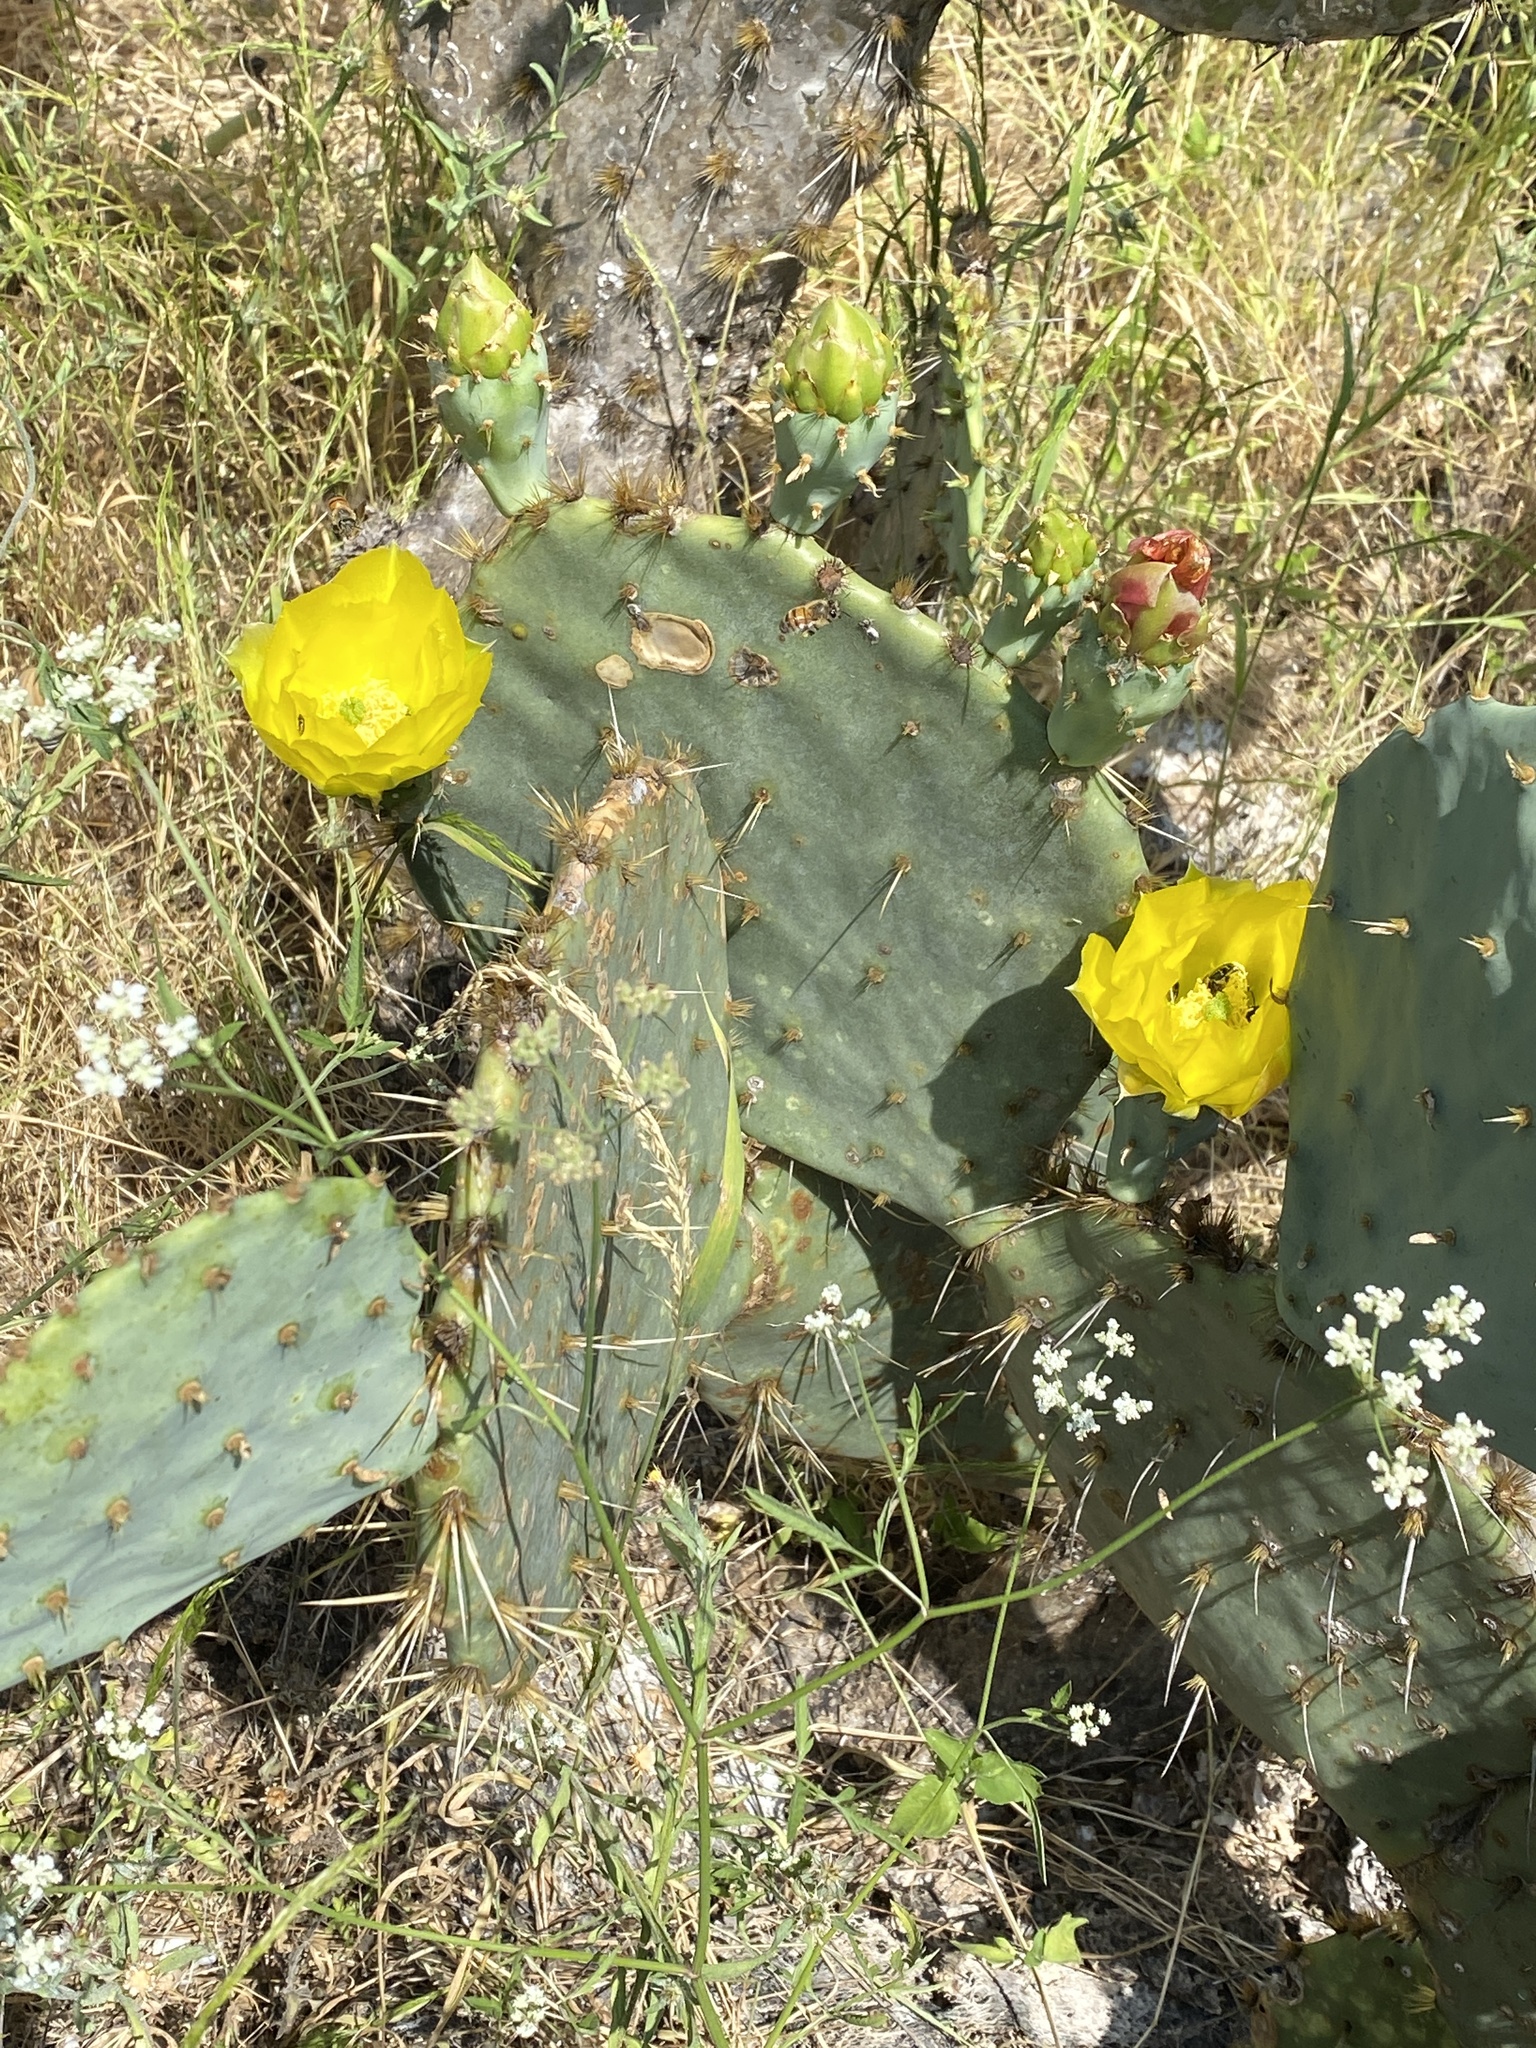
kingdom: Plantae
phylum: Tracheophyta
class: Magnoliopsida
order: Caryophyllales
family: Cactaceae
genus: Opuntia
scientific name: Opuntia engelmannii
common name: Cactus-apple
